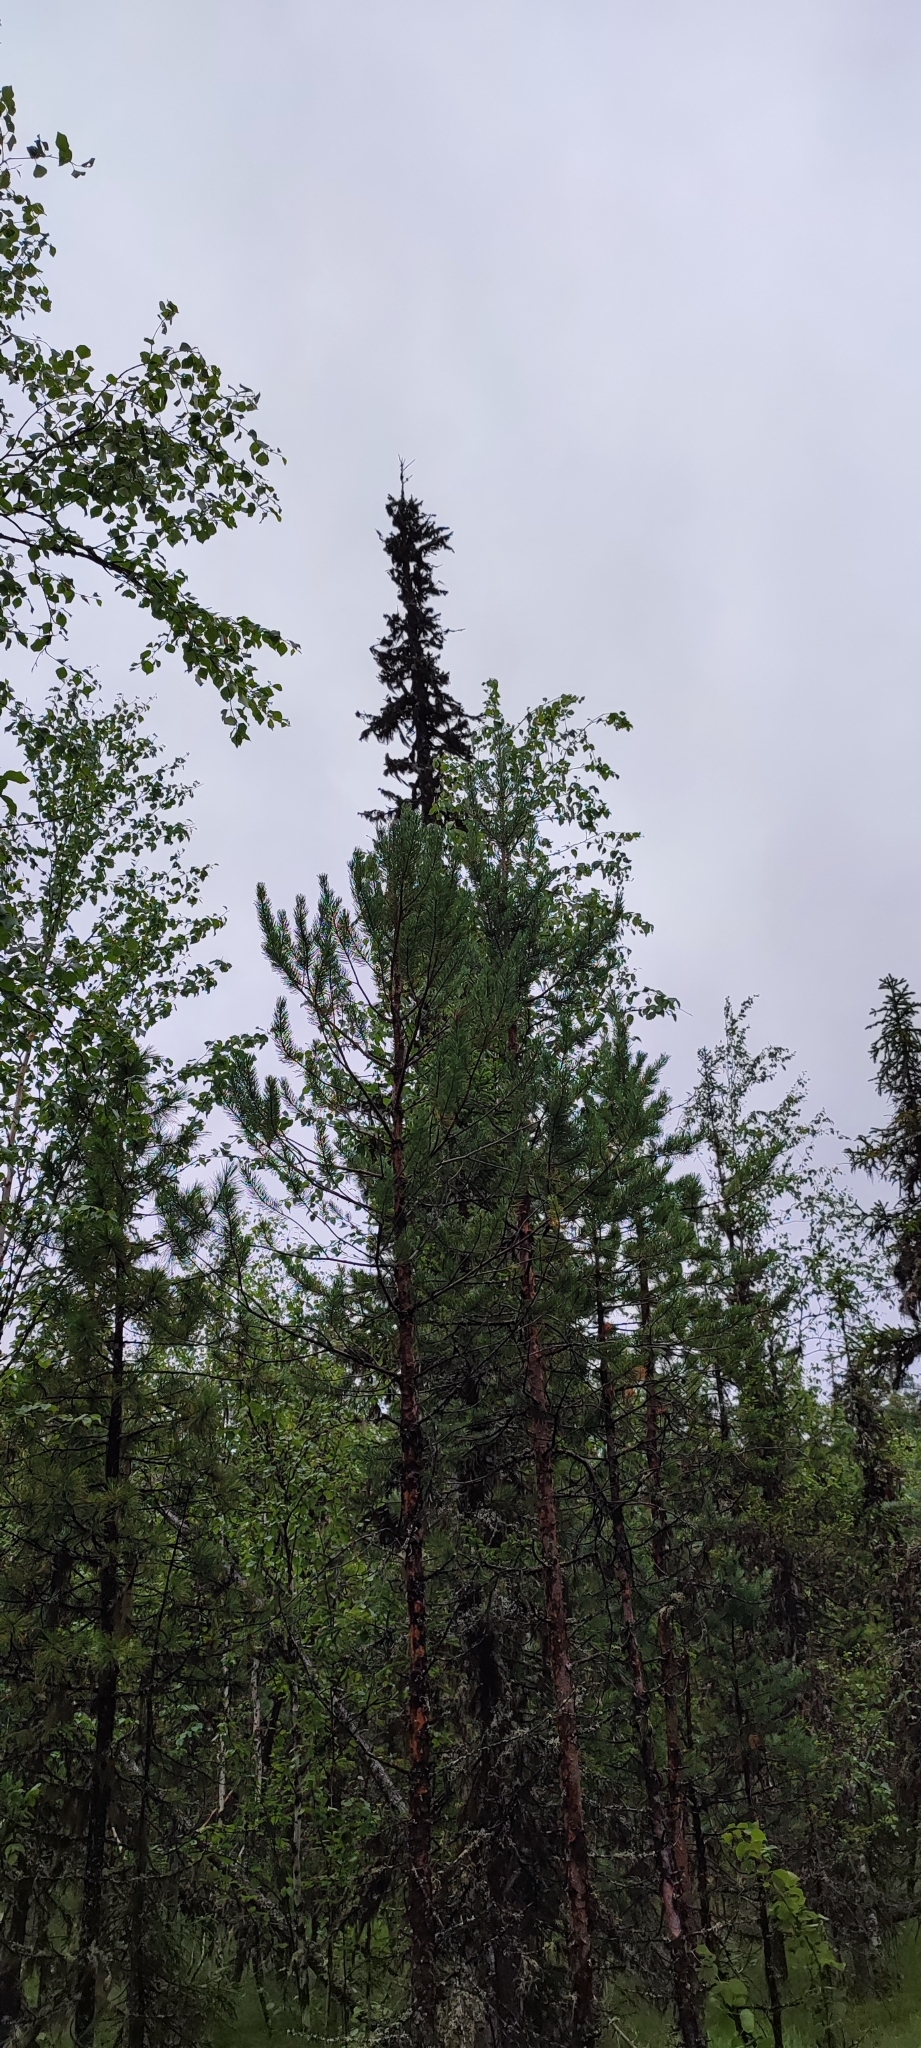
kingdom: Plantae
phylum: Tracheophyta
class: Pinopsida
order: Pinales
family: Pinaceae
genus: Picea
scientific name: Picea obovata
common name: Siberian spruce
